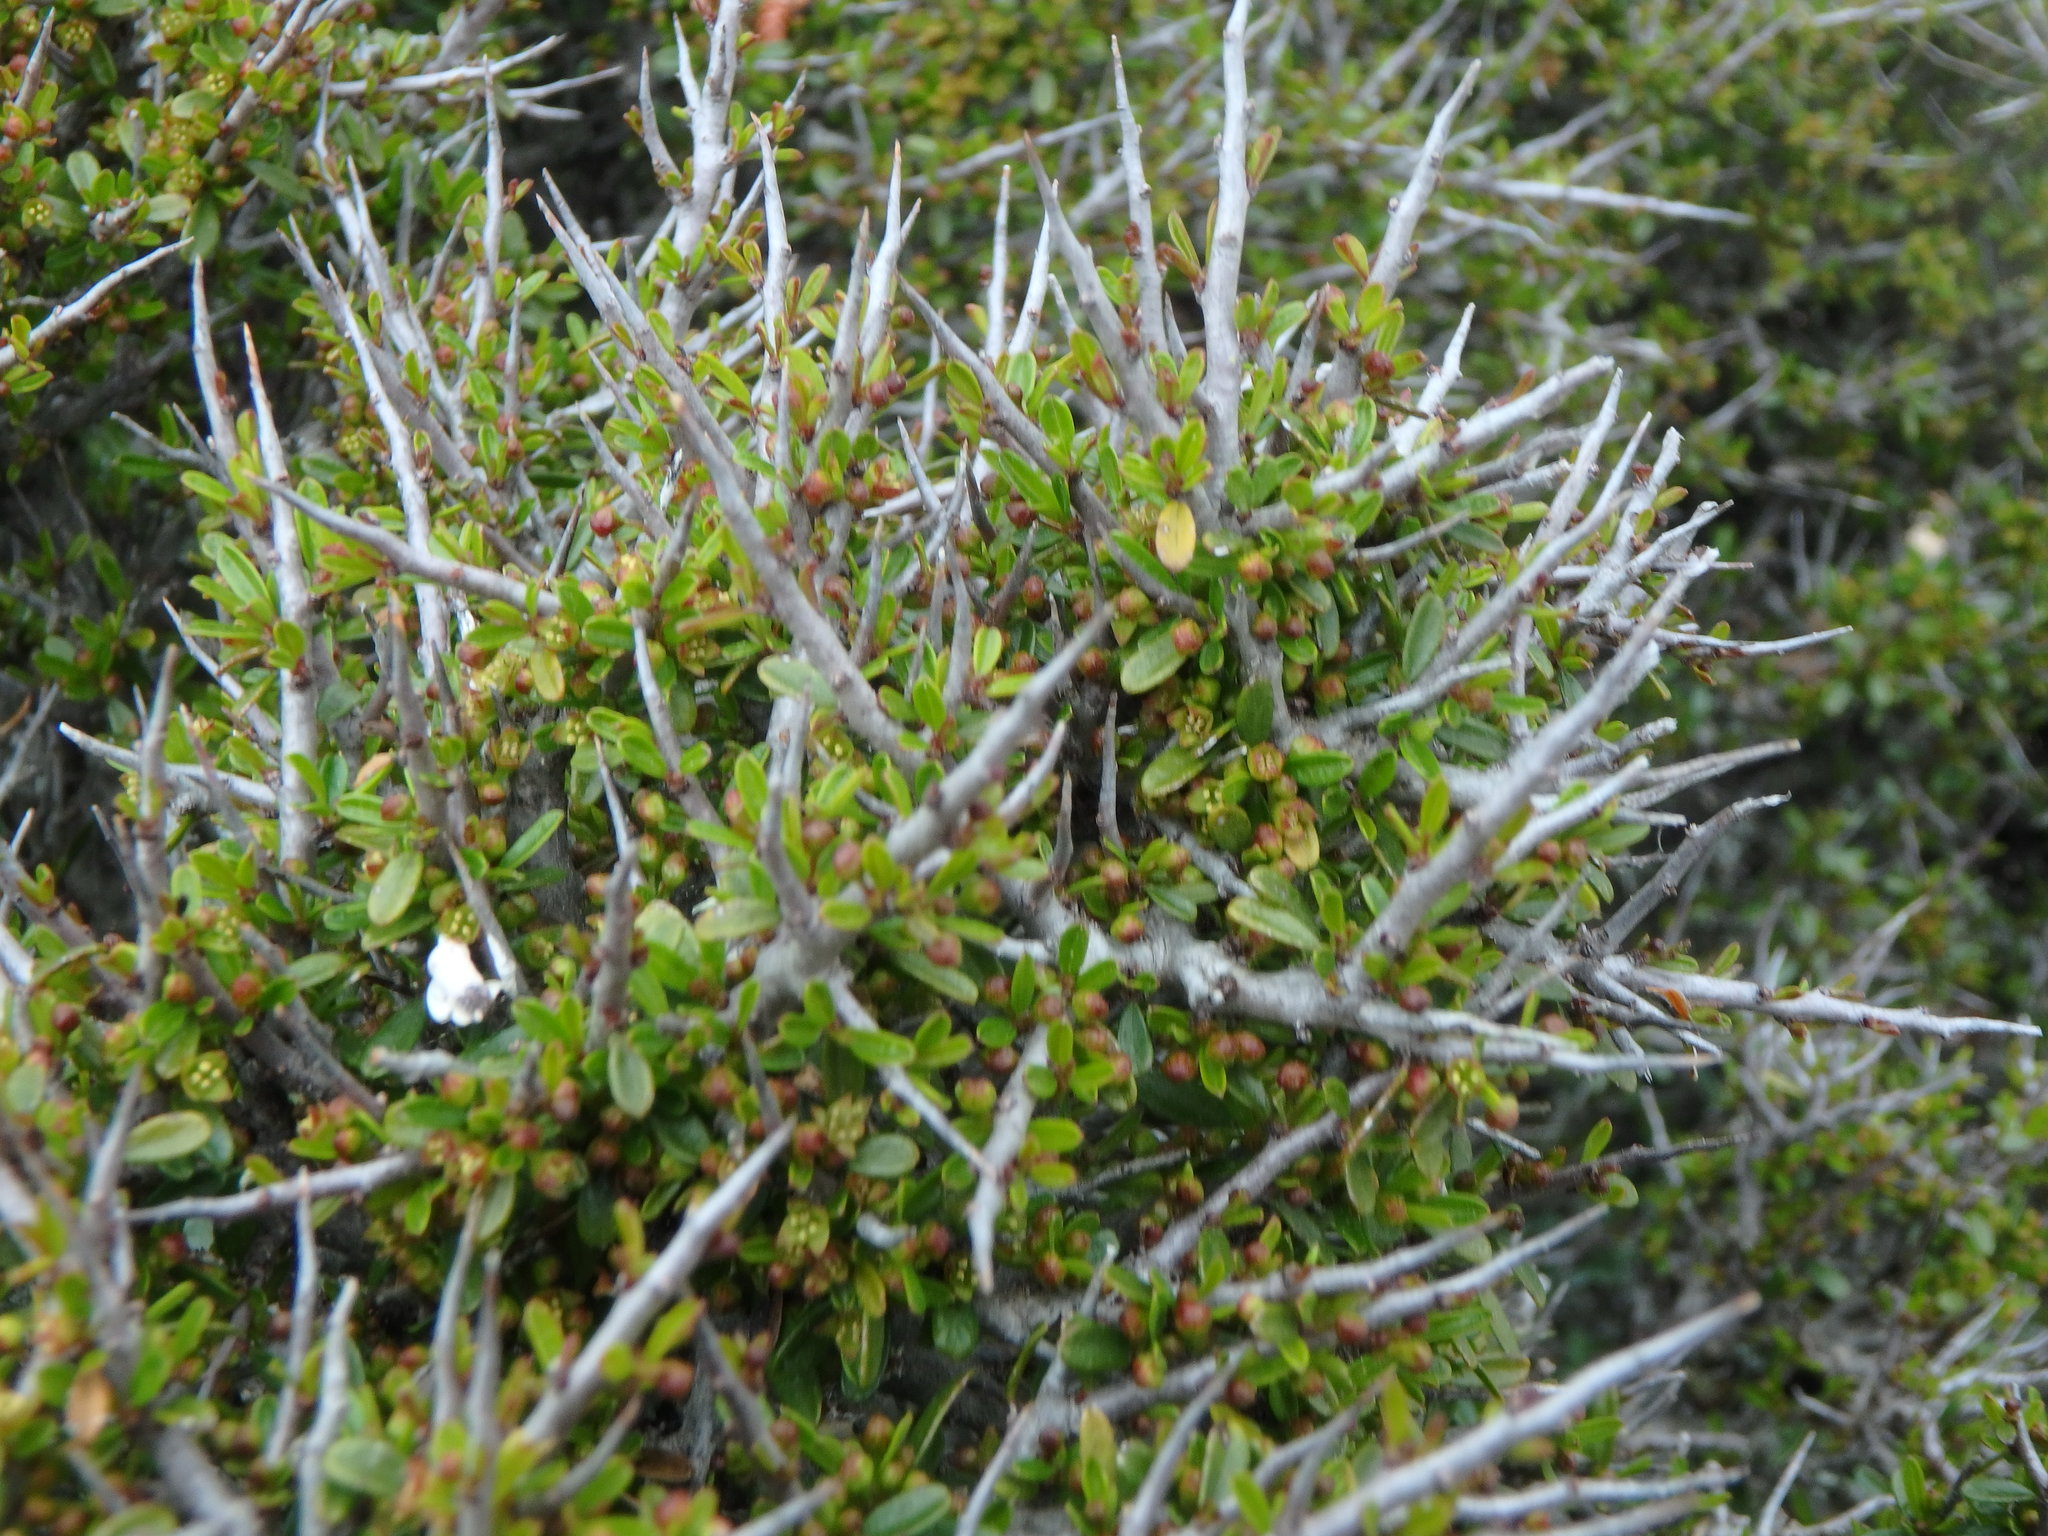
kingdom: Plantae
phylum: Tracheophyta
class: Magnoliopsida
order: Rosales
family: Rhamnaceae
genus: Rhamnus
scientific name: Rhamnus oleoides
